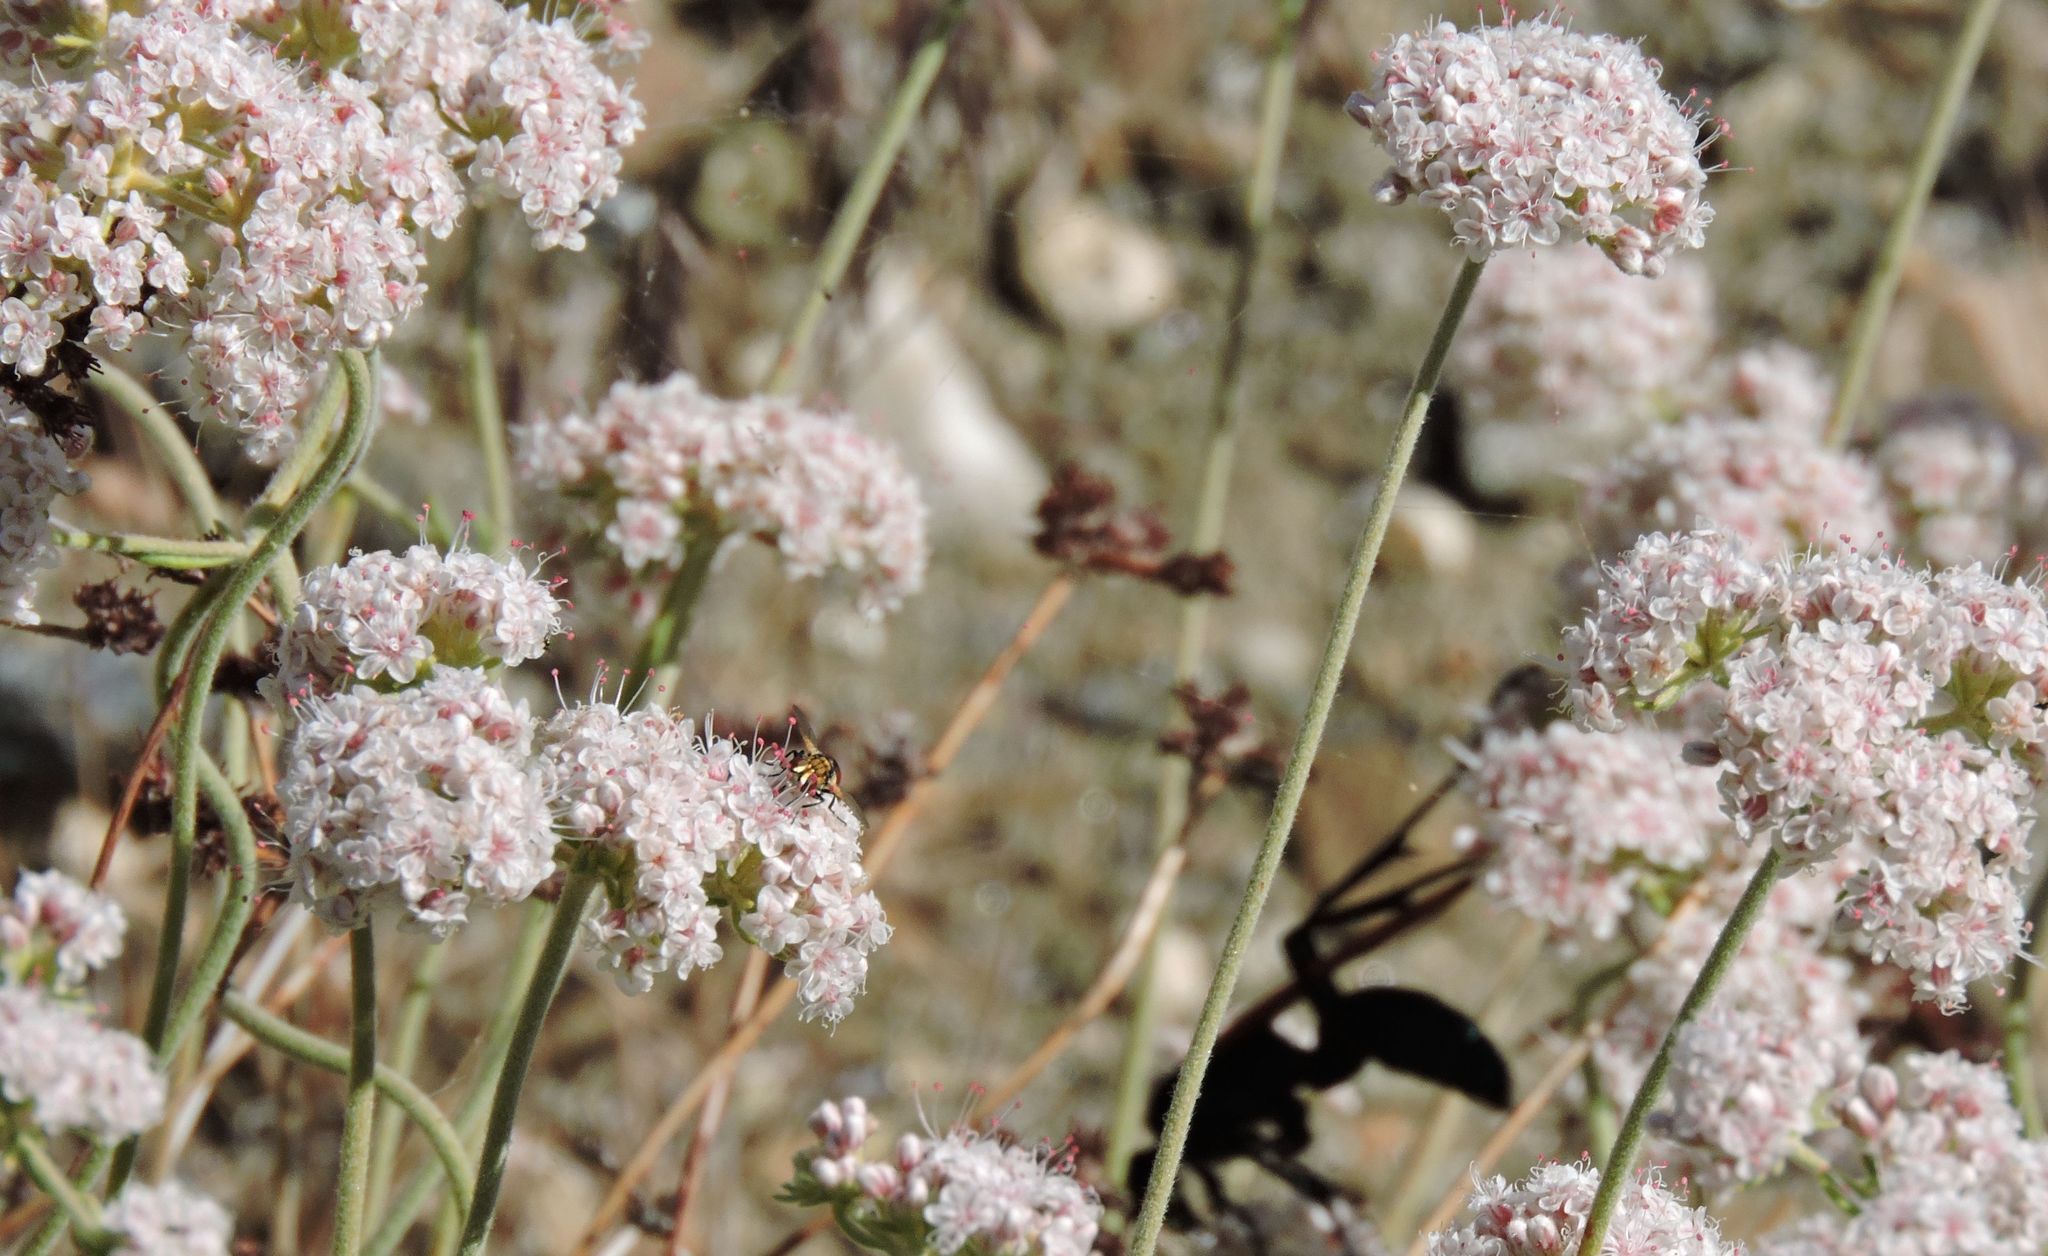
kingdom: Plantae
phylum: Tracheophyta
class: Magnoliopsida
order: Caryophyllales
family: Polygonaceae
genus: Eriogonum
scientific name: Eriogonum fasciculatum
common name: California wild buckwheat
